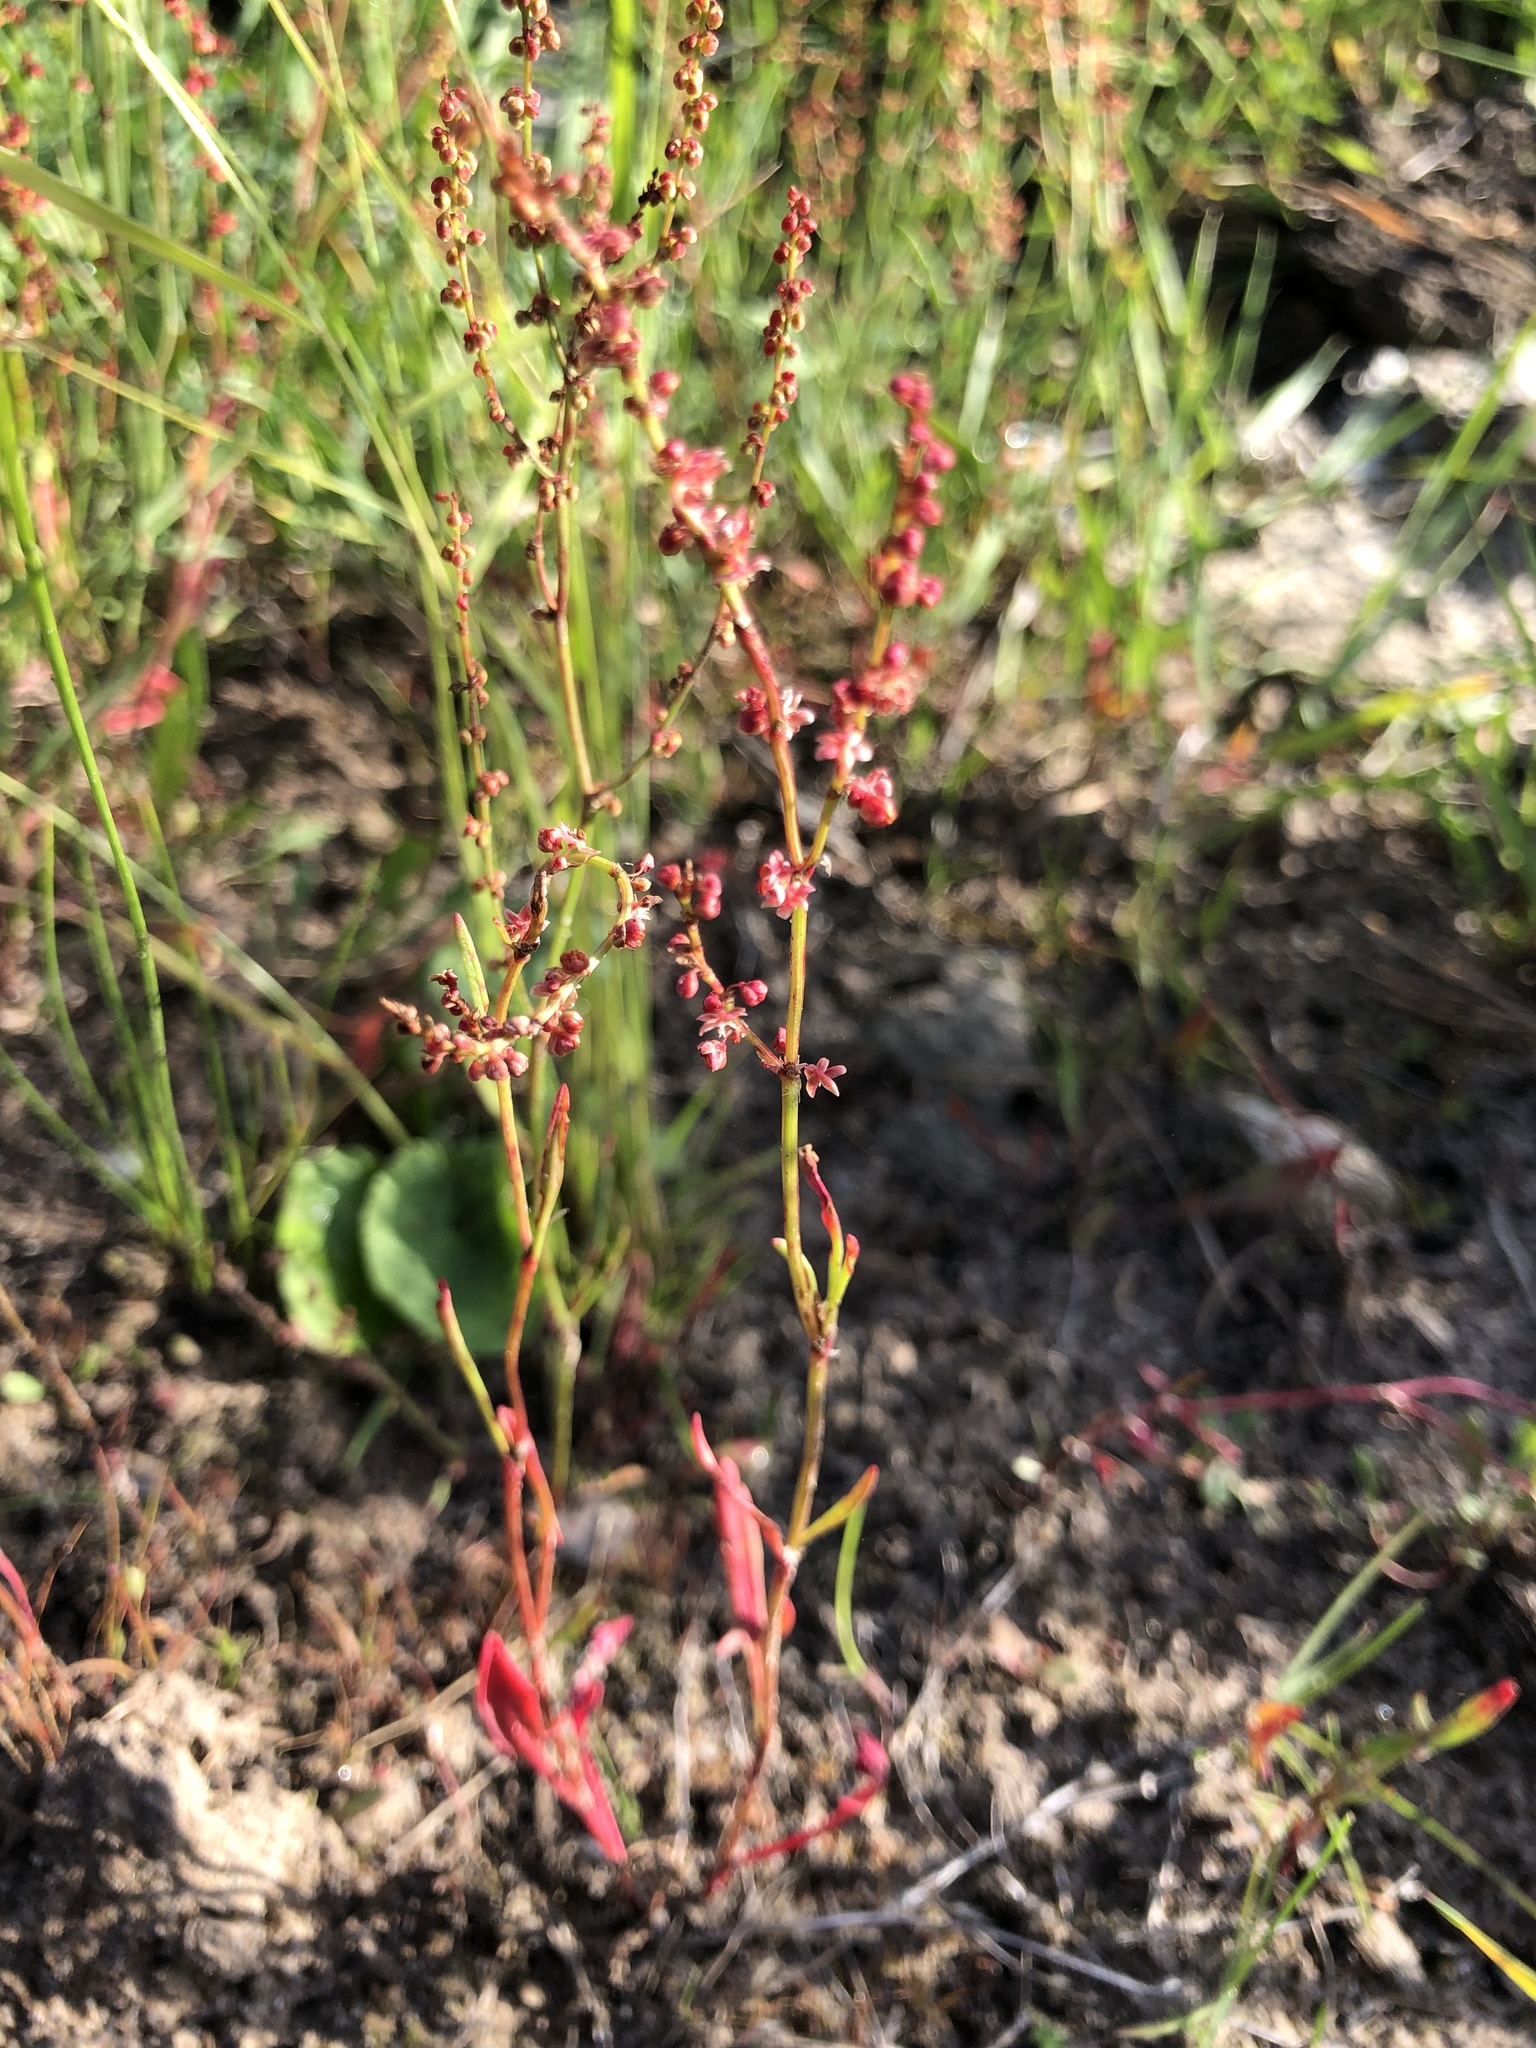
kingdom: Plantae
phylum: Tracheophyta
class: Magnoliopsida
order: Caryophyllales
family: Polygonaceae
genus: Rumex
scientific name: Rumex acetosella
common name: Common sheep sorrel
